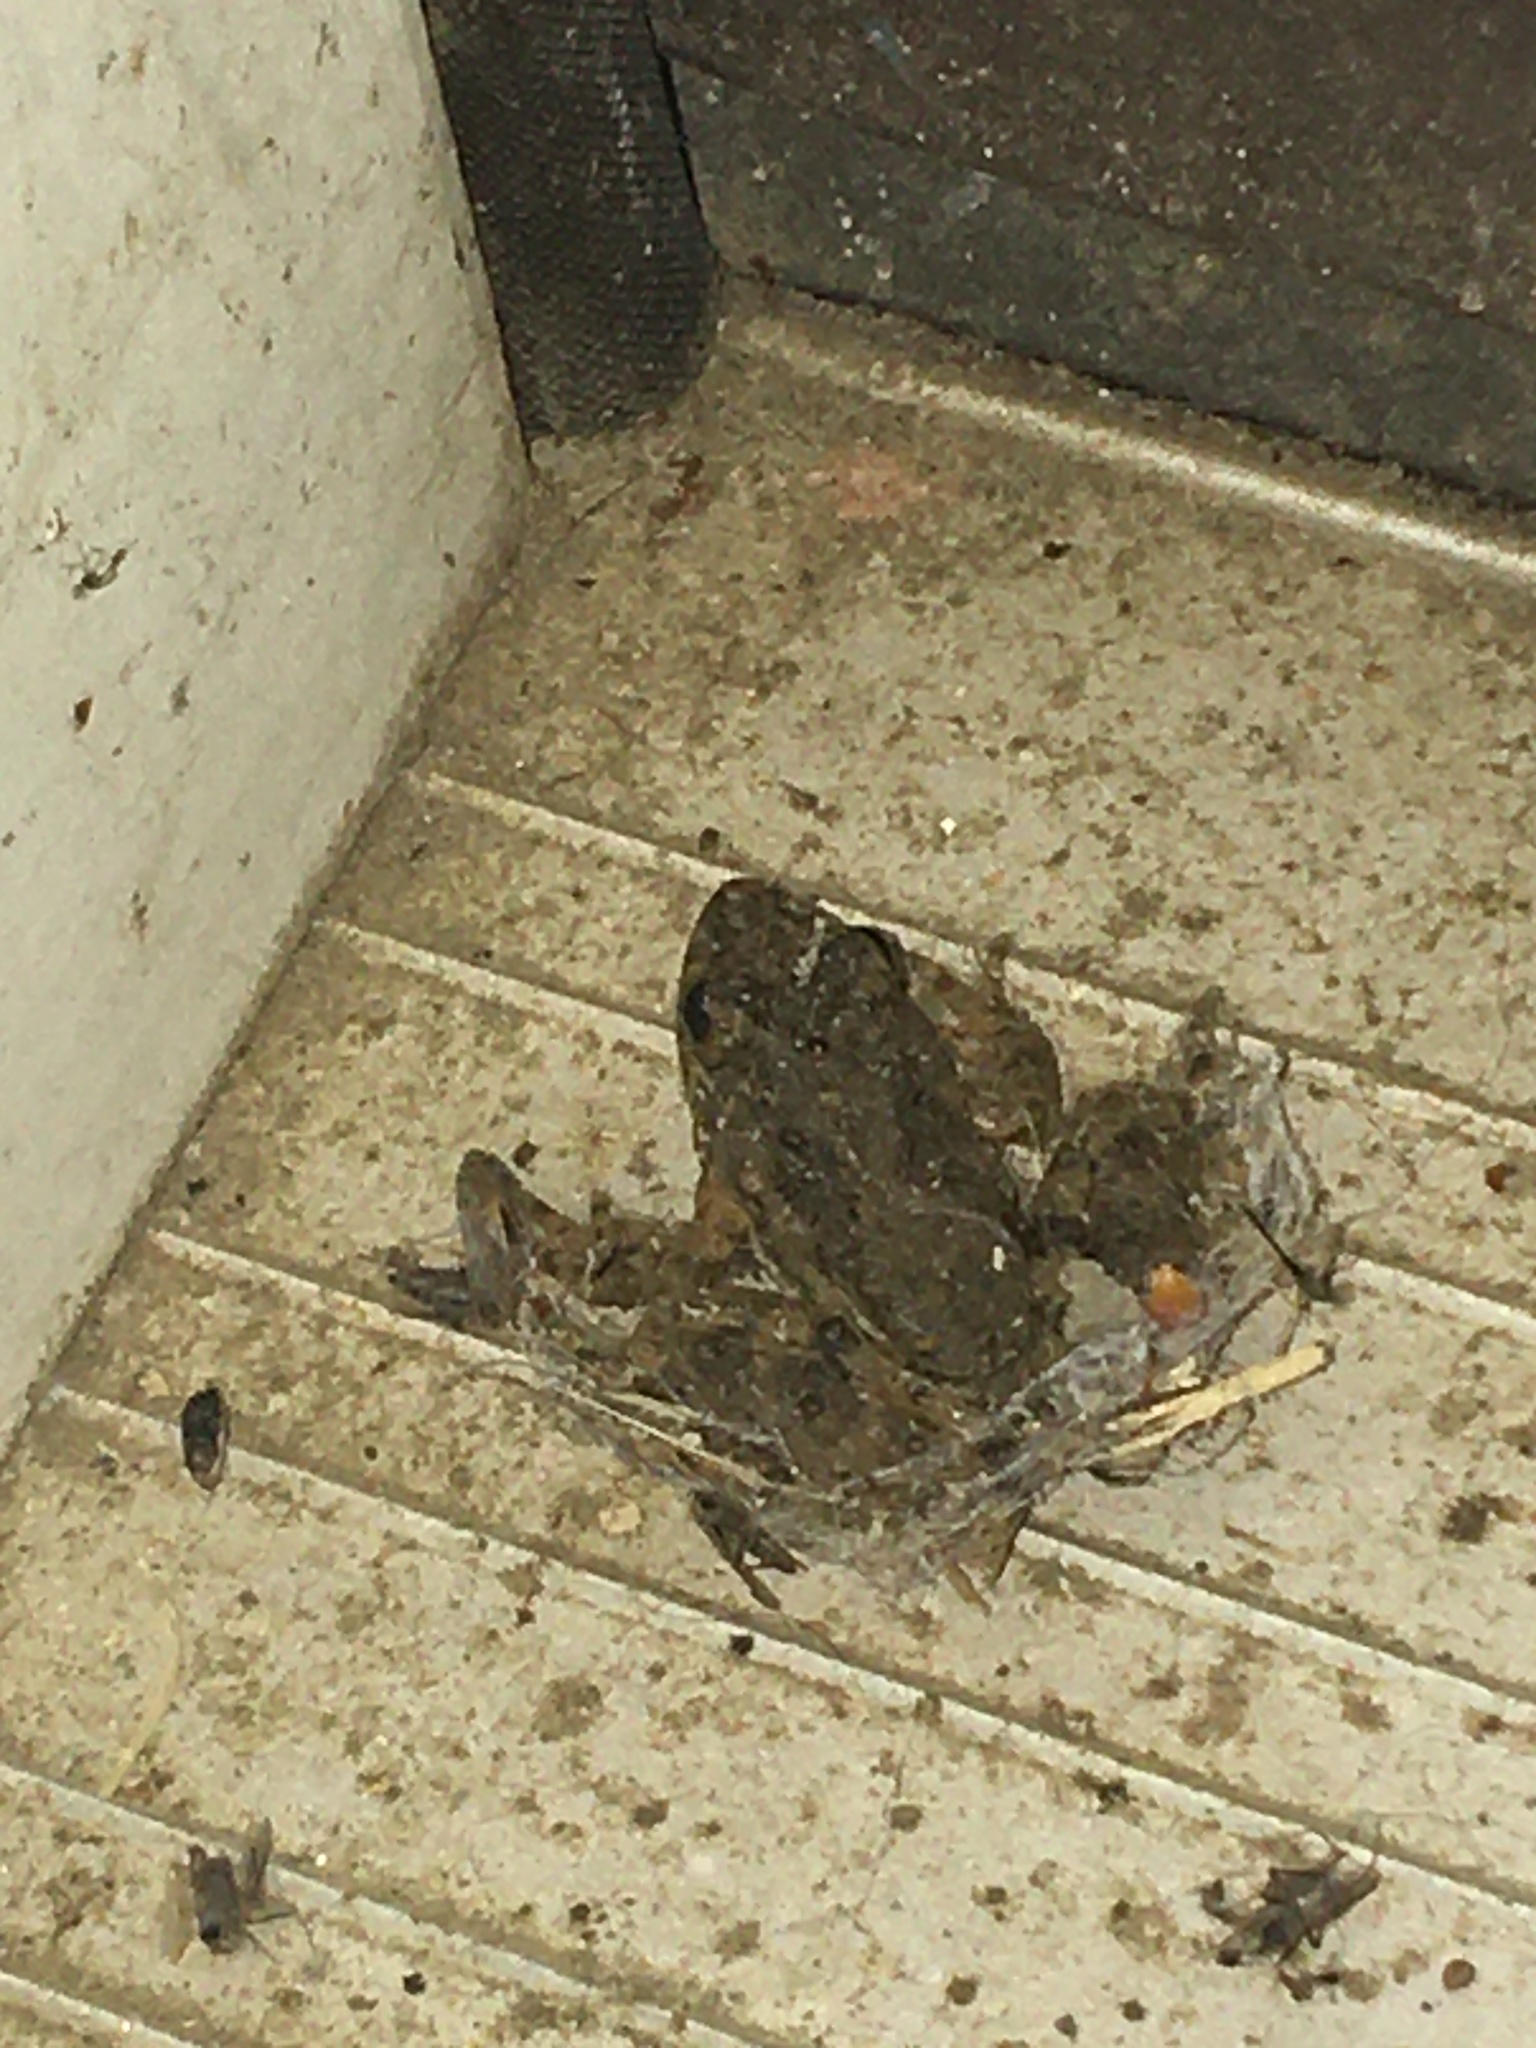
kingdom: Animalia
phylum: Chordata
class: Amphibia
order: Anura
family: Hylidae
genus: Acris
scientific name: Acris blanchardi
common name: Blanchard's cricket frog
